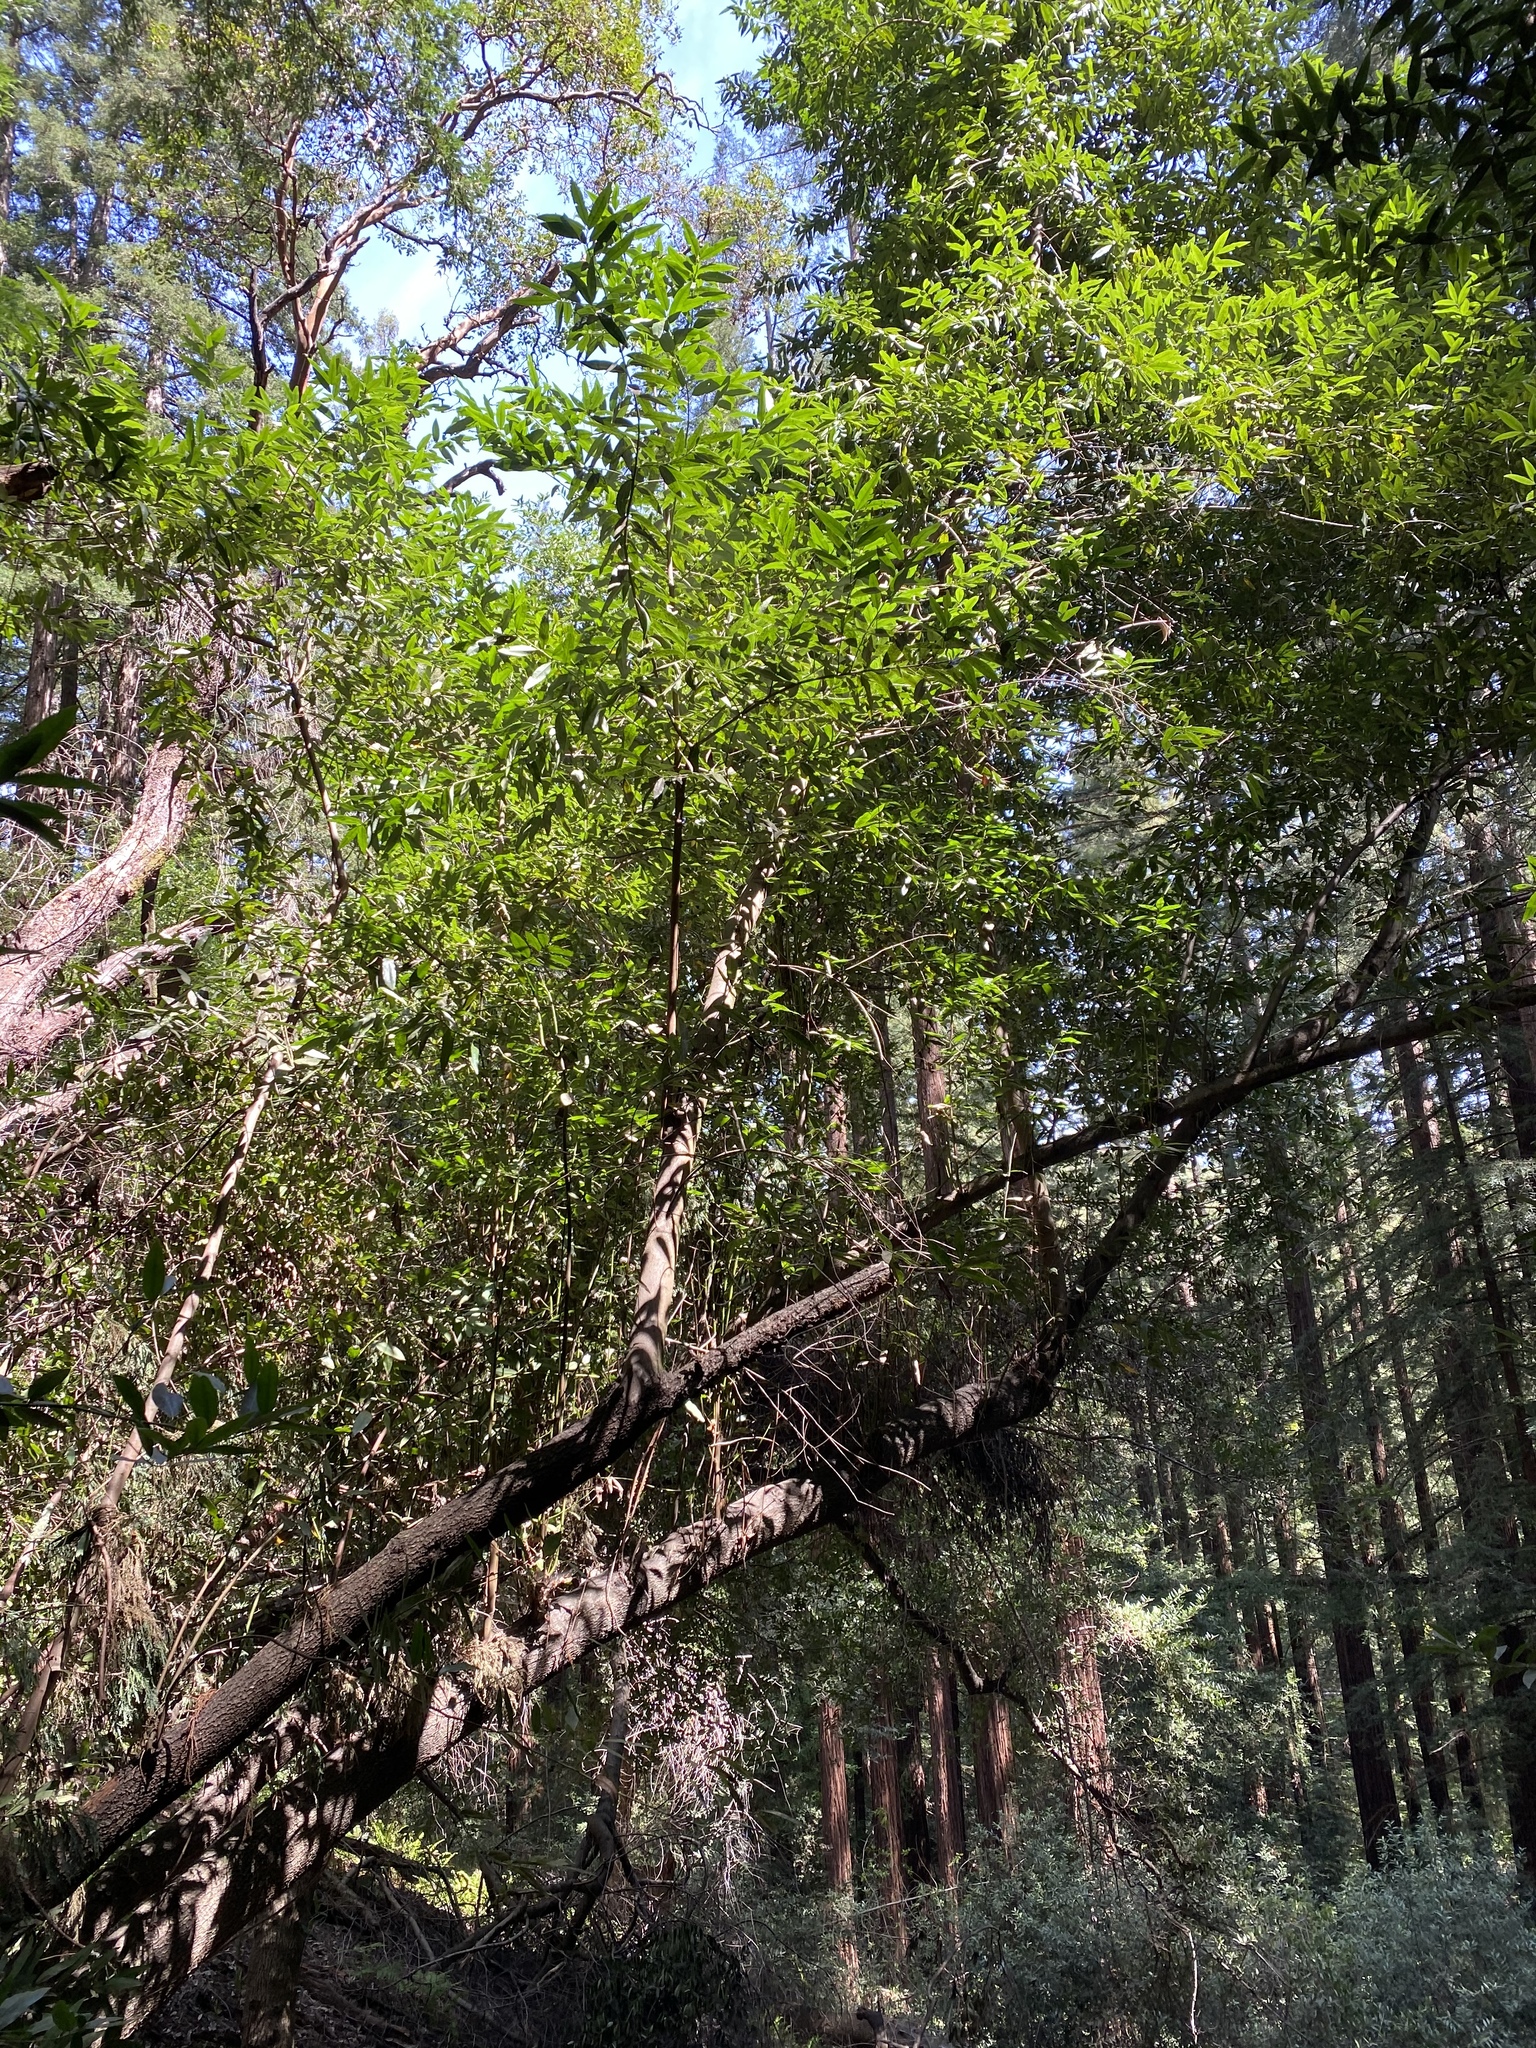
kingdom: Plantae
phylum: Tracheophyta
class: Magnoliopsida
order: Laurales
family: Lauraceae
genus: Umbellularia
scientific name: Umbellularia californica
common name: California bay
